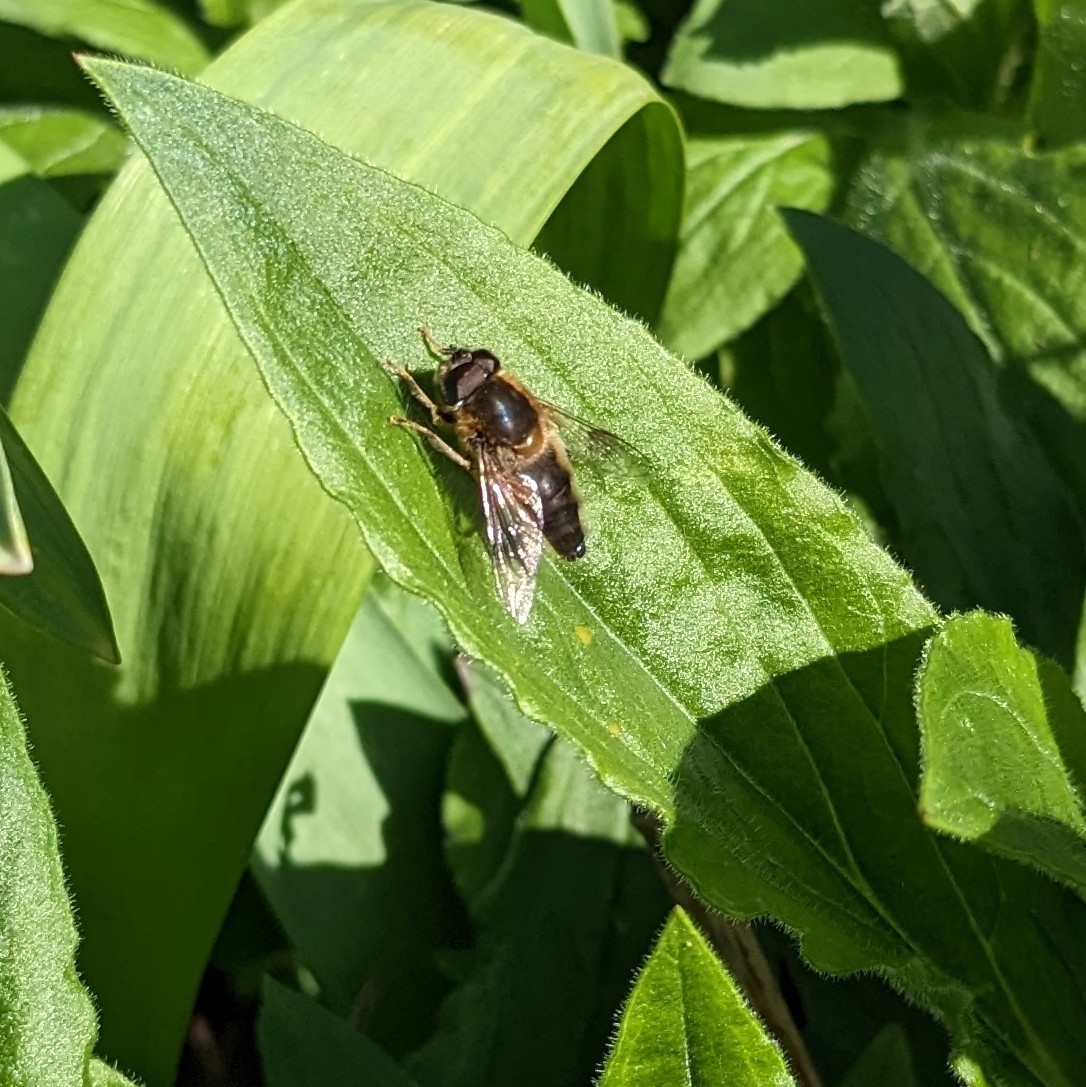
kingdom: Animalia
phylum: Arthropoda
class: Insecta
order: Diptera
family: Syrphidae
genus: Eristalis
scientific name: Eristalis pertinax
